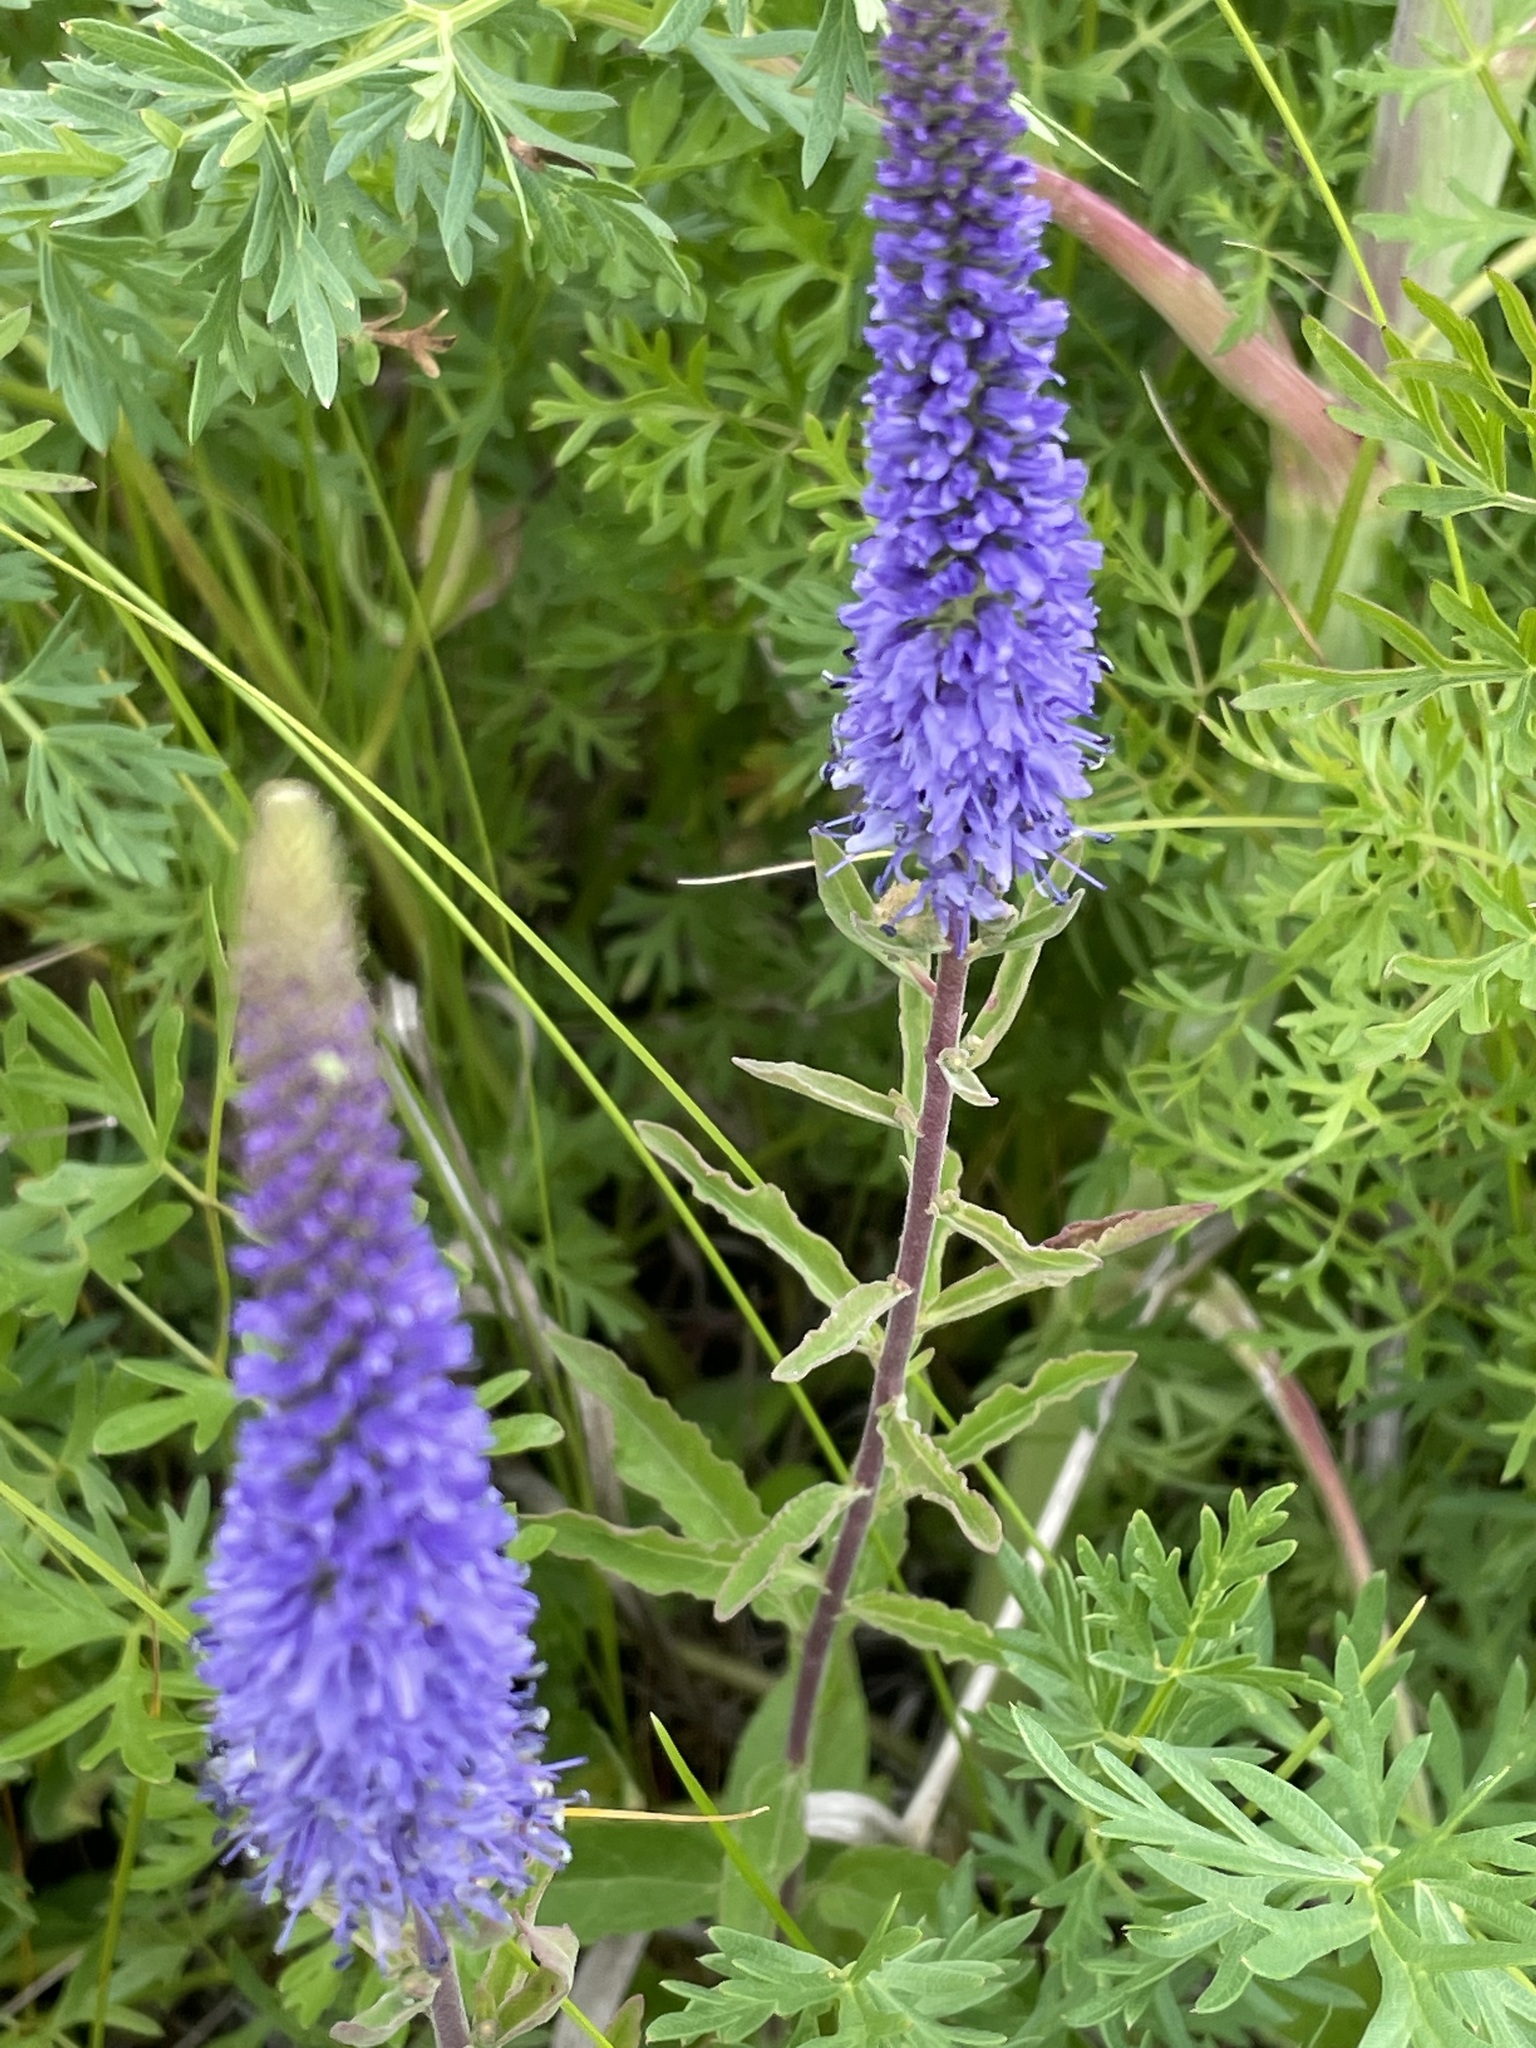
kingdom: Plantae
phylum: Tracheophyta
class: Magnoliopsida
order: Lamiales
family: Plantaginaceae
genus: Veronica
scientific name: Veronica spicata
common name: Spiked speedwell
